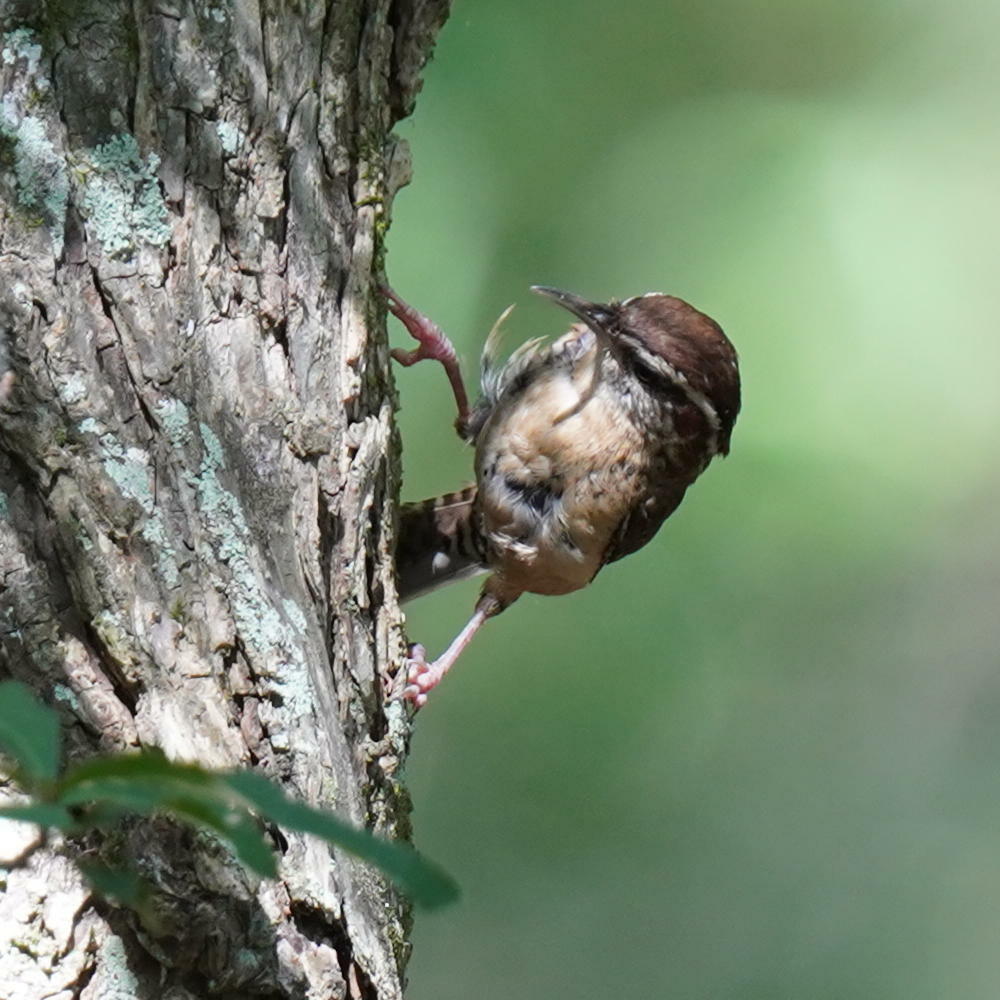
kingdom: Animalia
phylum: Chordata
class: Aves
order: Passeriformes
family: Troglodytidae
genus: Thryothorus
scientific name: Thryothorus ludovicianus
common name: Carolina wren
